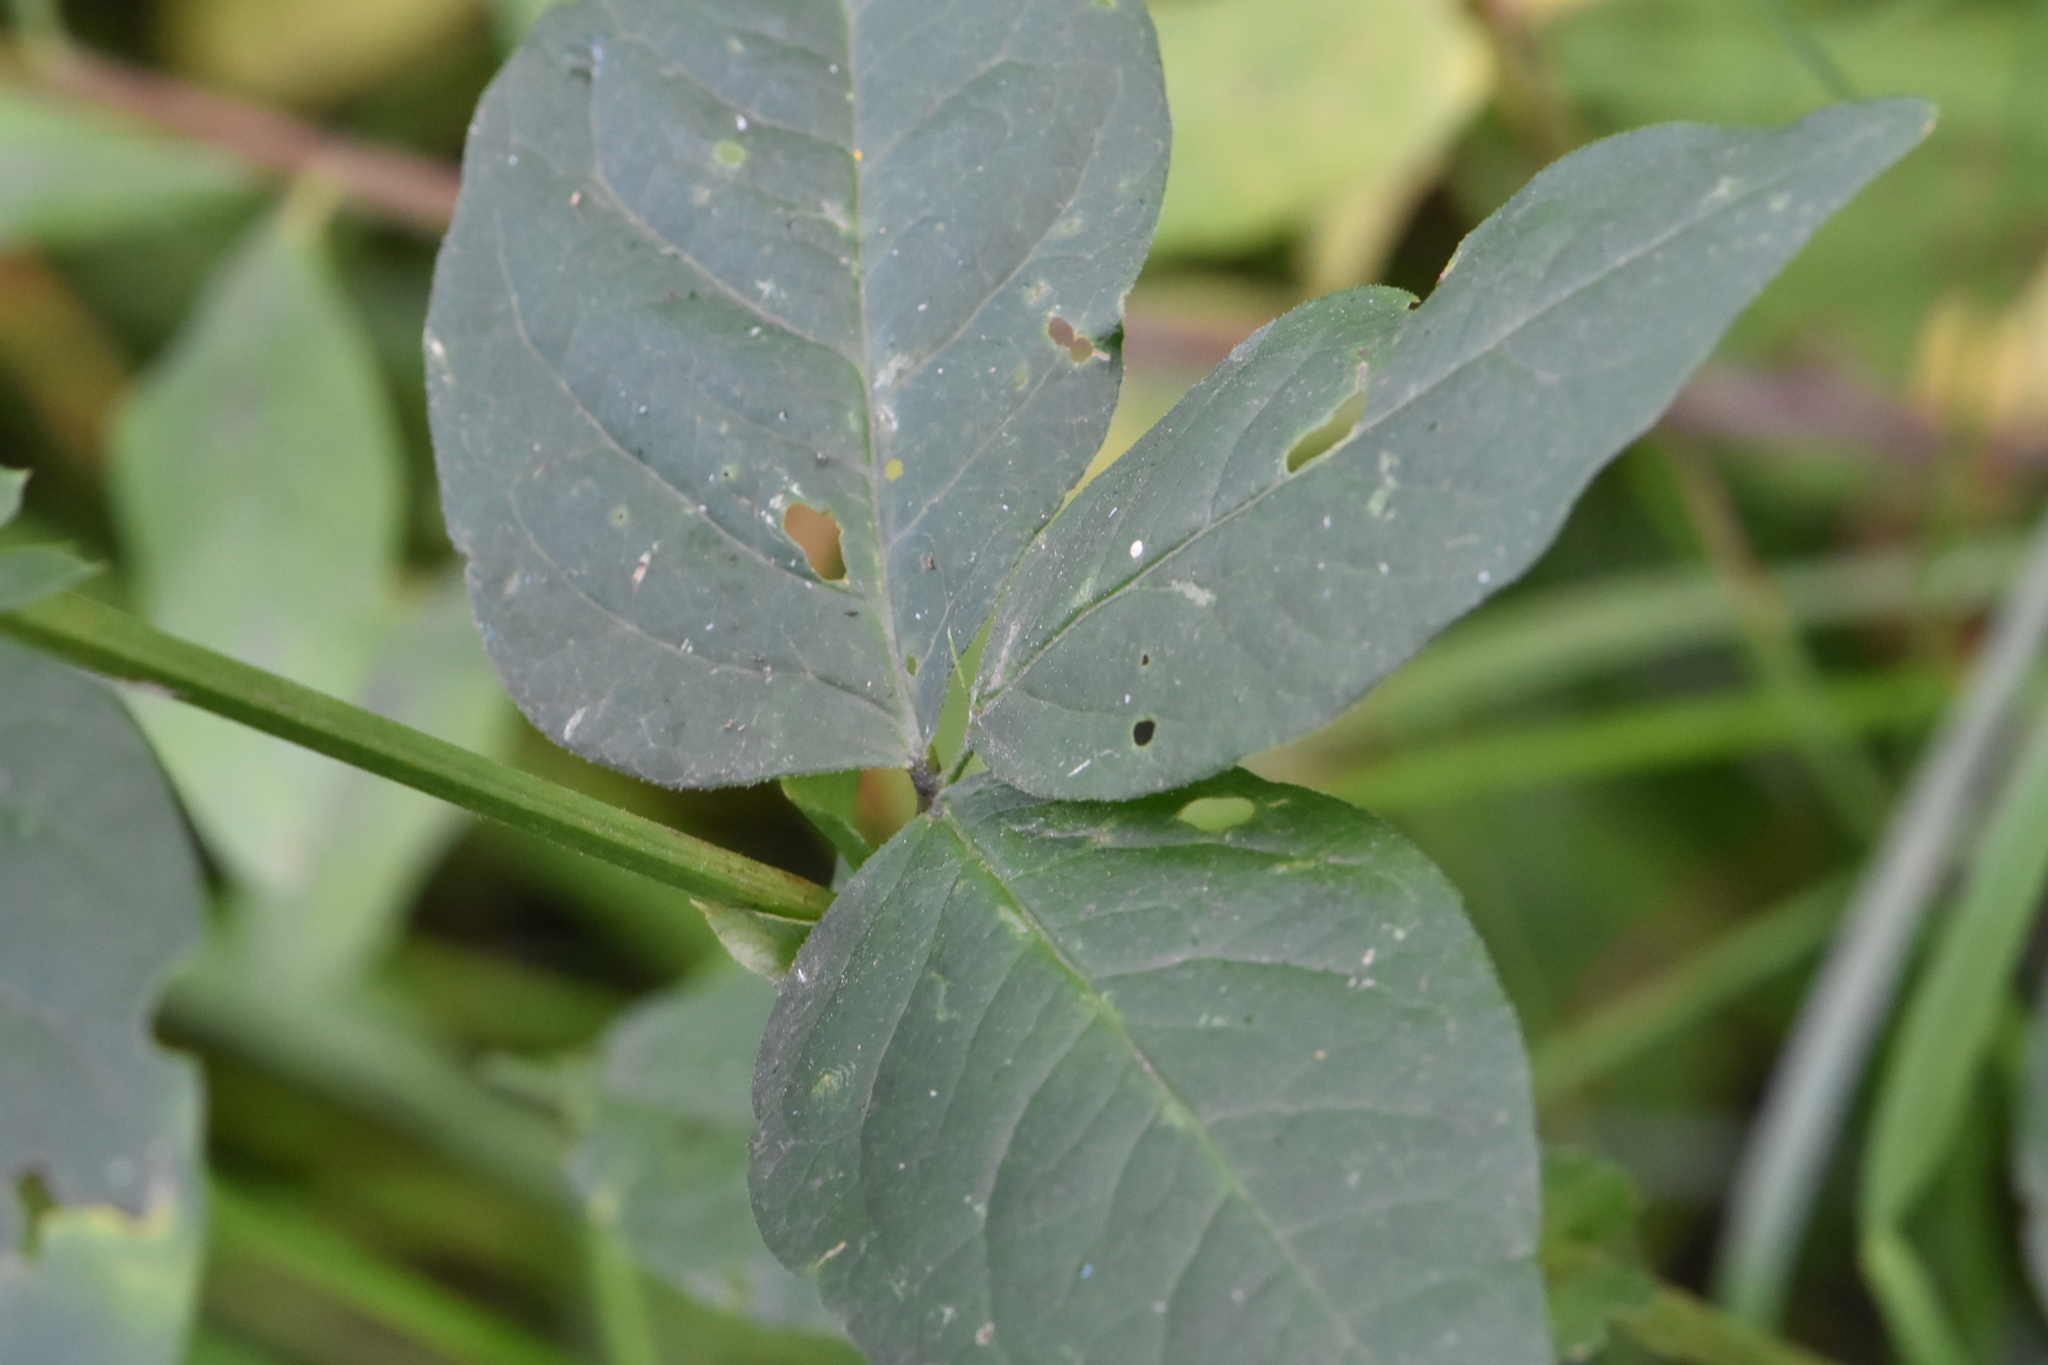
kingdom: Plantae
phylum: Tracheophyta
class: Magnoliopsida
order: Fabales
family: Fabaceae
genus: Vicia
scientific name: Vicia unijuga
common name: Two-leaf vetch
